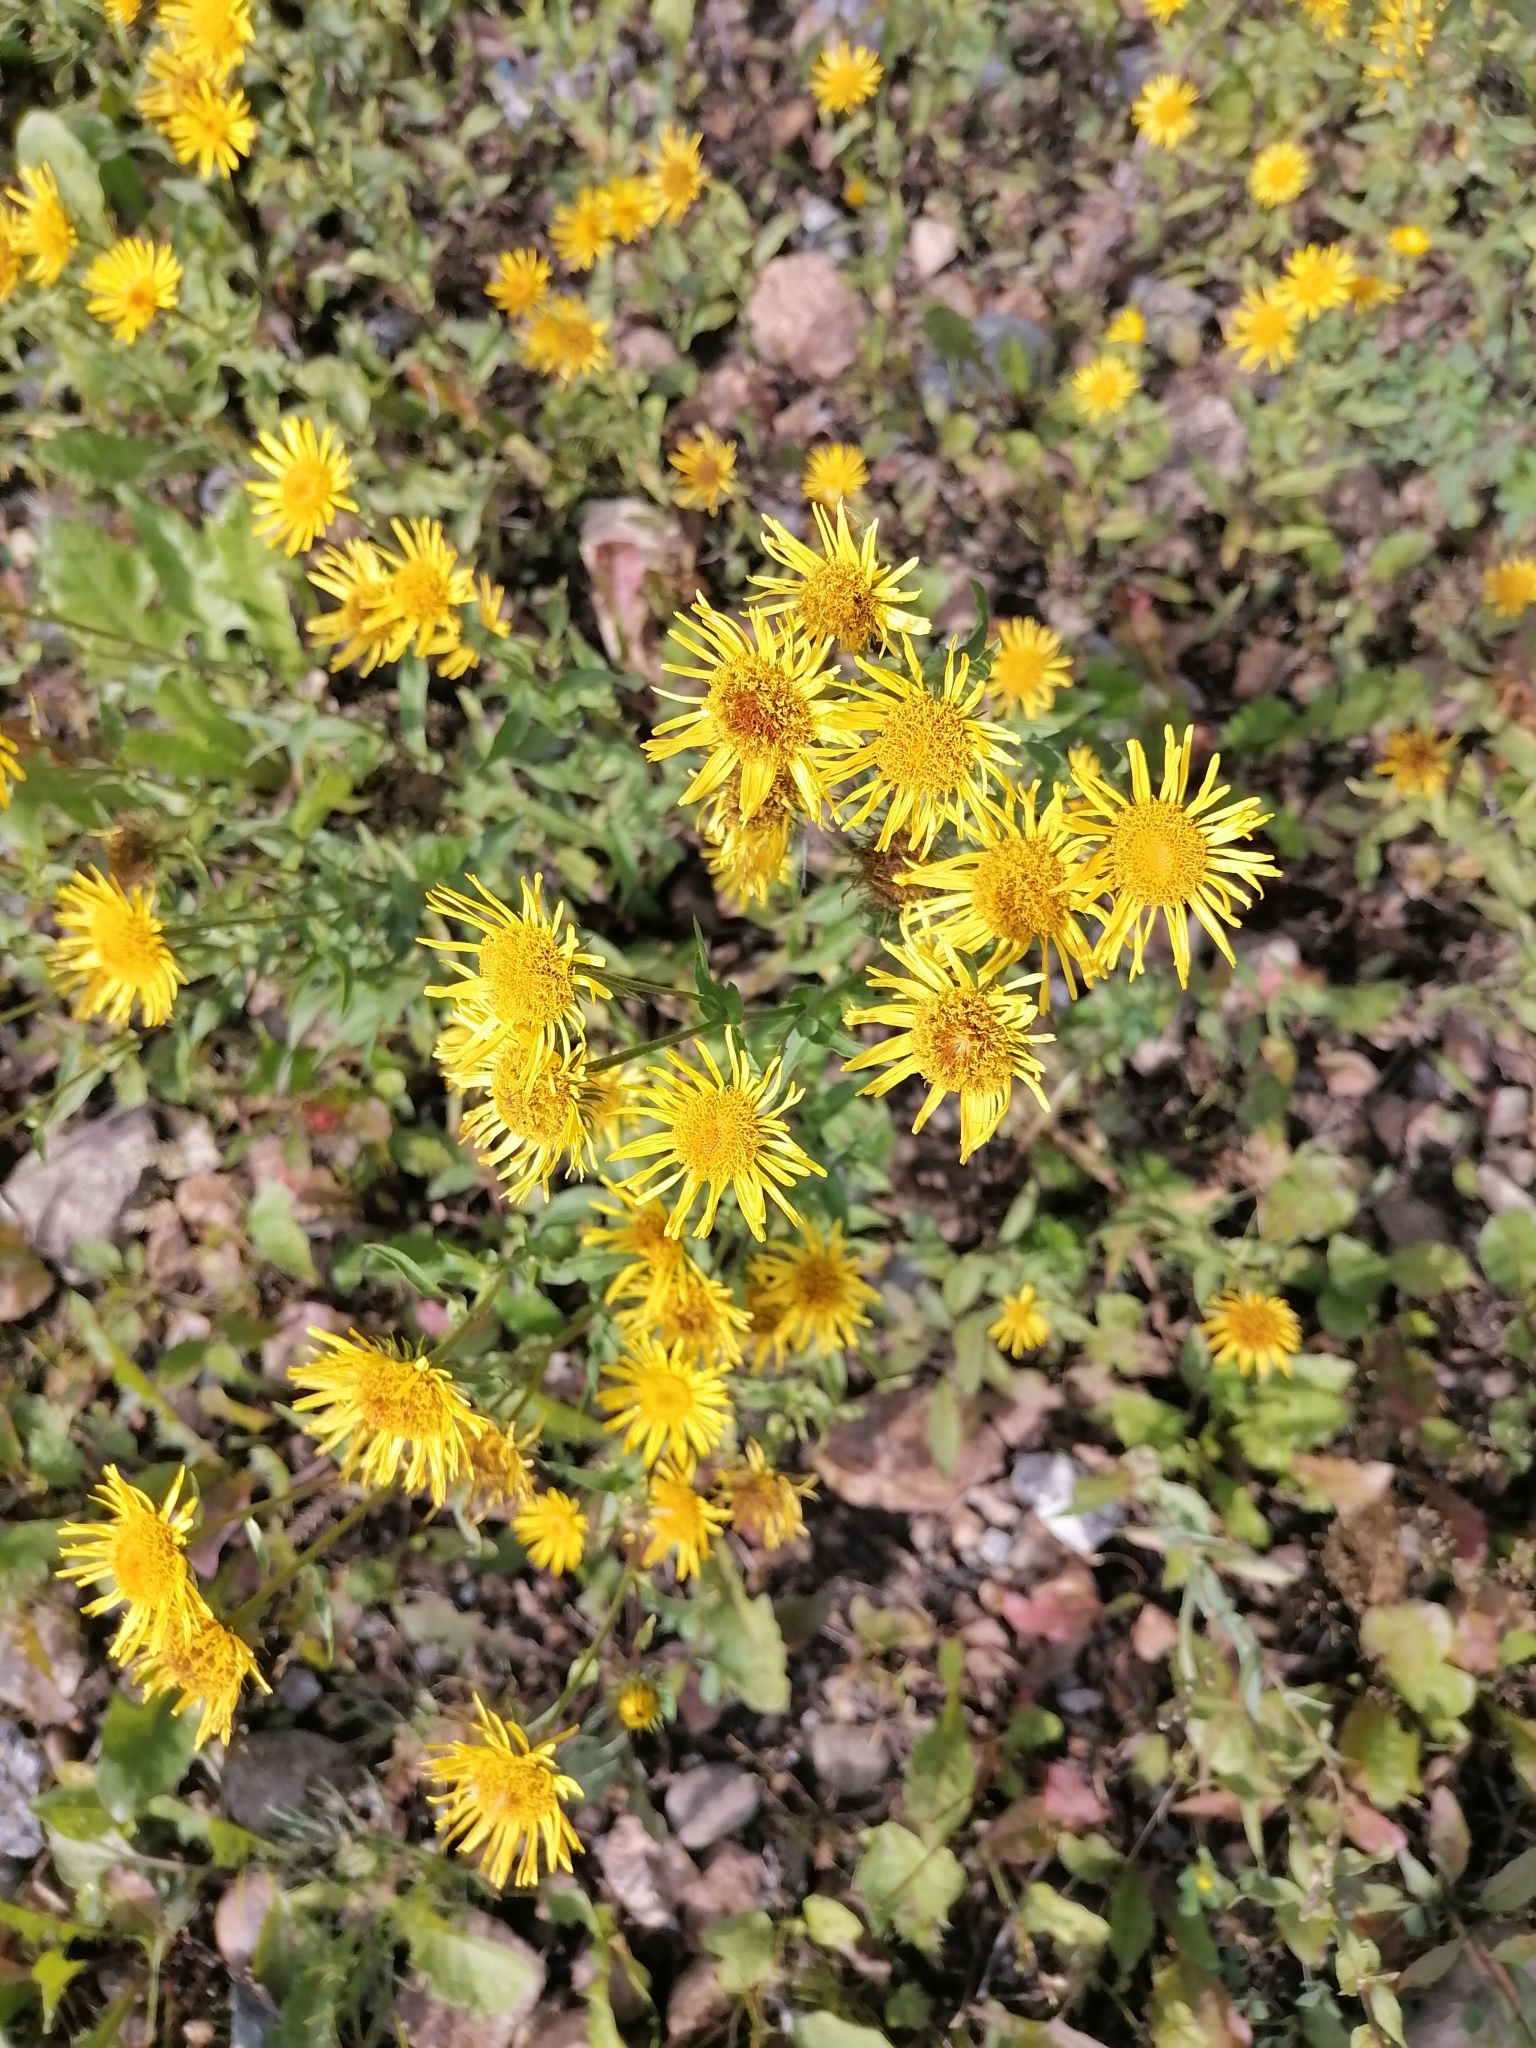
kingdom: Plantae
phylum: Tracheophyta
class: Magnoliopsida
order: Asterales
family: Asteraceae
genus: Pentanema
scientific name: Pentanema britannicum
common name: British elecampane
